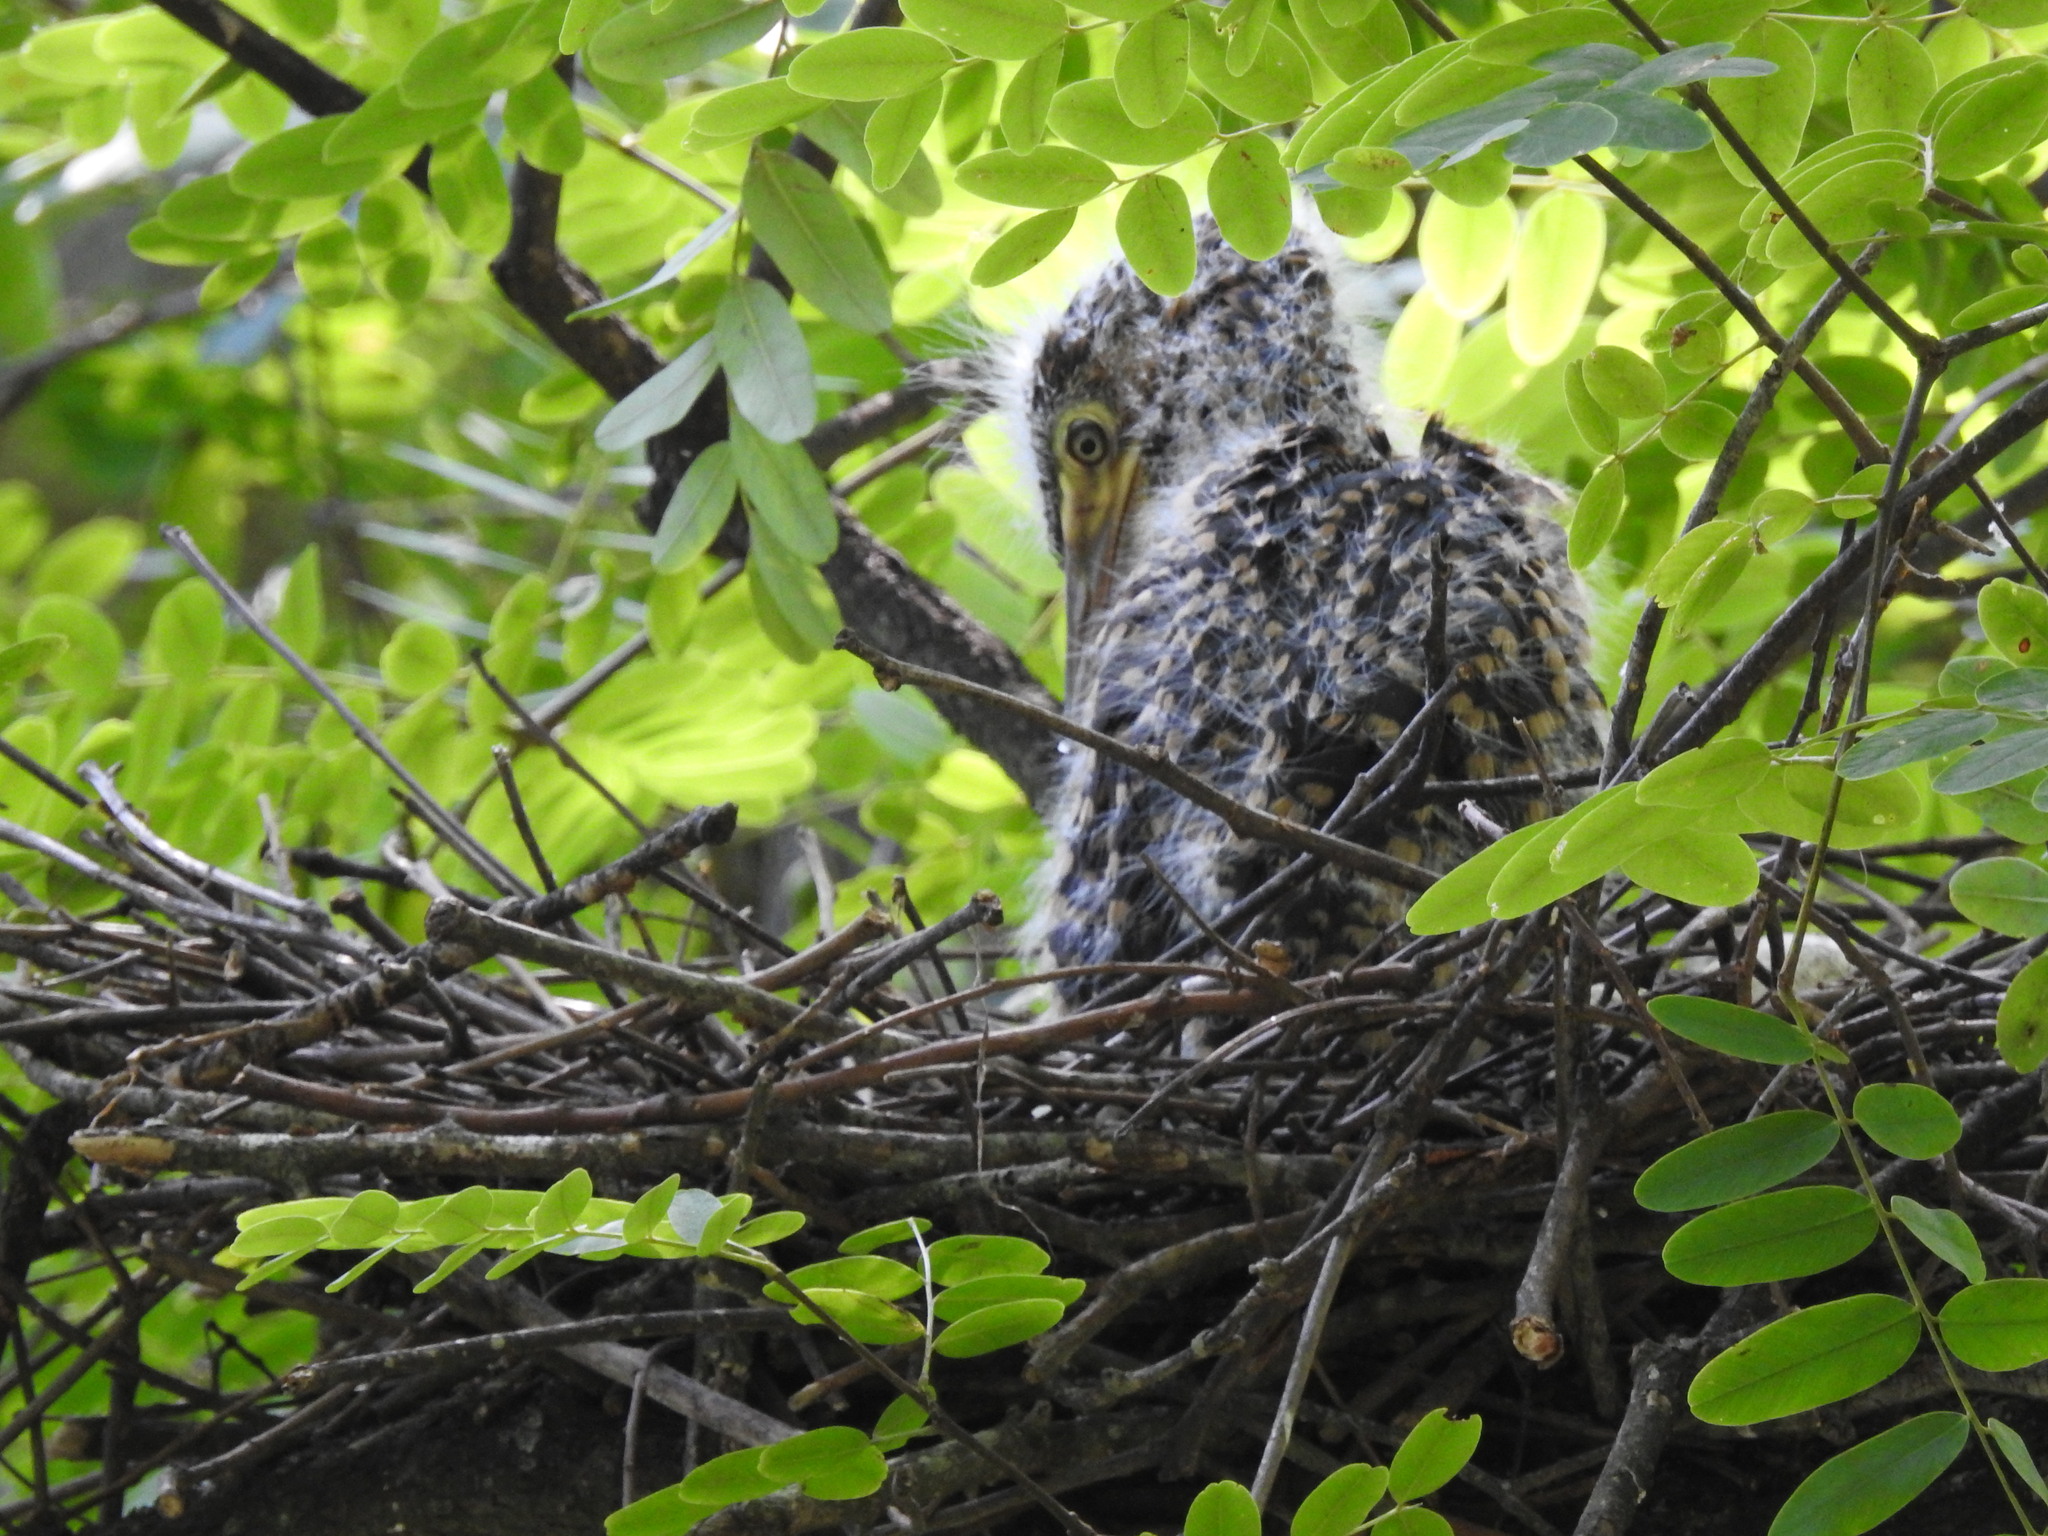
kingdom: Animalia
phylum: Chordata
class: Aves
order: Pelecaniformes
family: Ardeidae
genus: Tigrisoma
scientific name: Tigrisoma lineatum
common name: Rufescent tiger-heron
